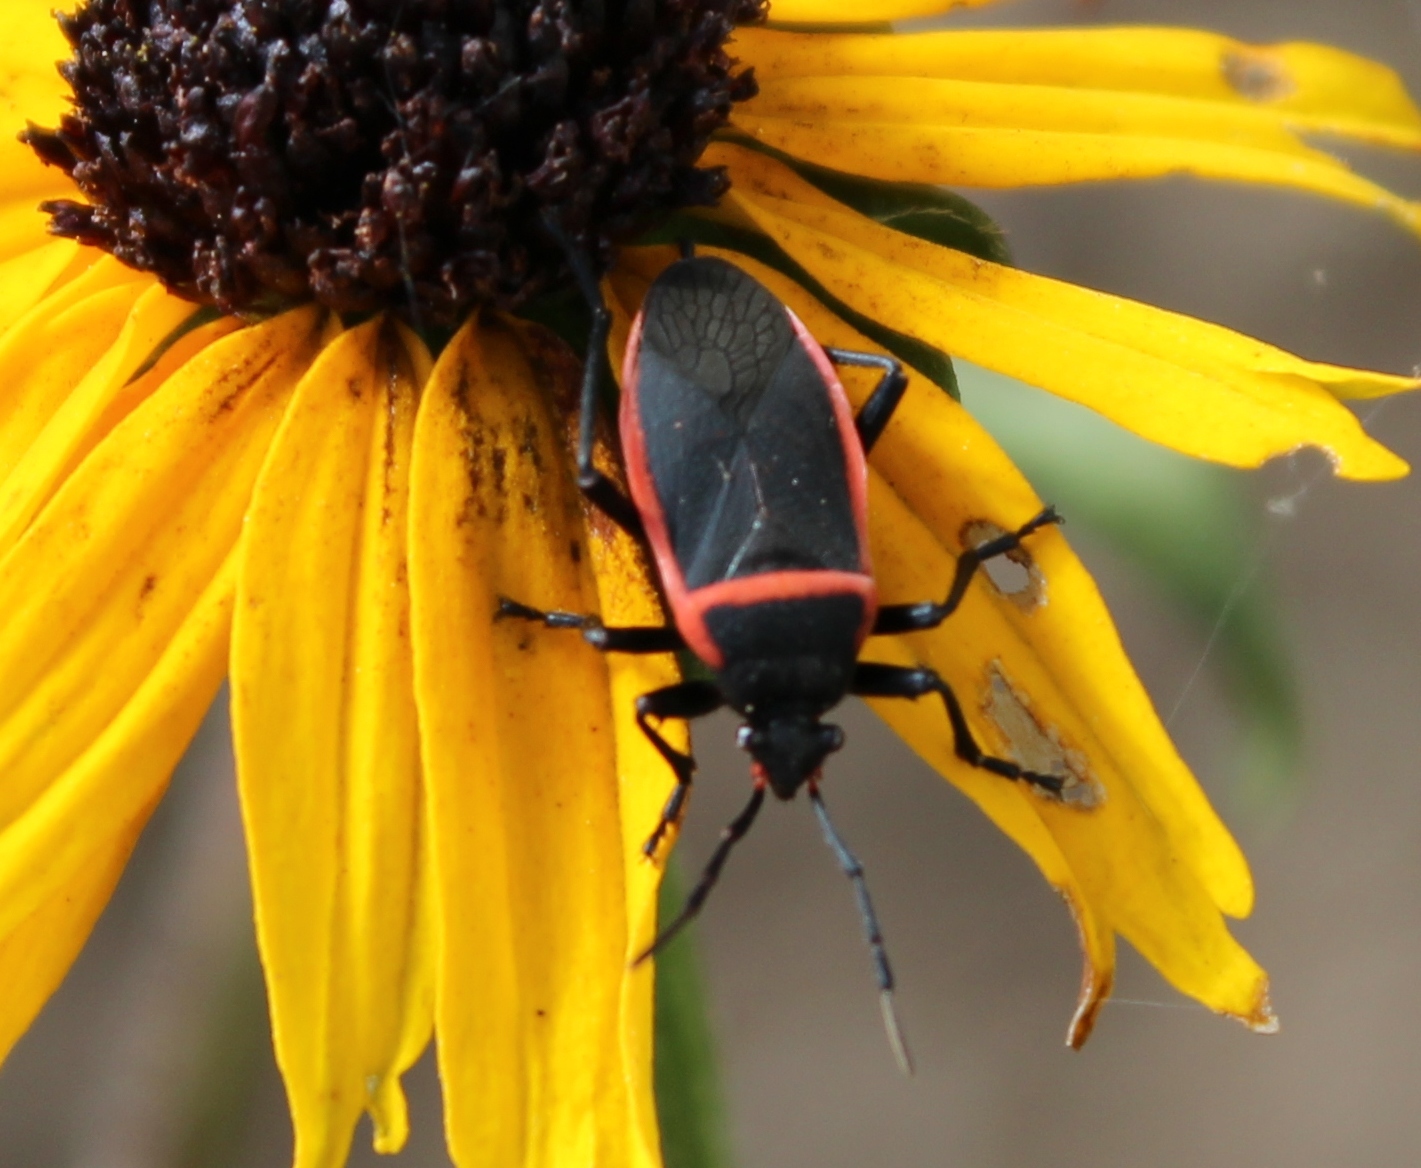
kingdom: Animalia
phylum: Arthropoda
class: Insecta
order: Hemiptera
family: Largidae
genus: Largus
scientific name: Largus cinctus
